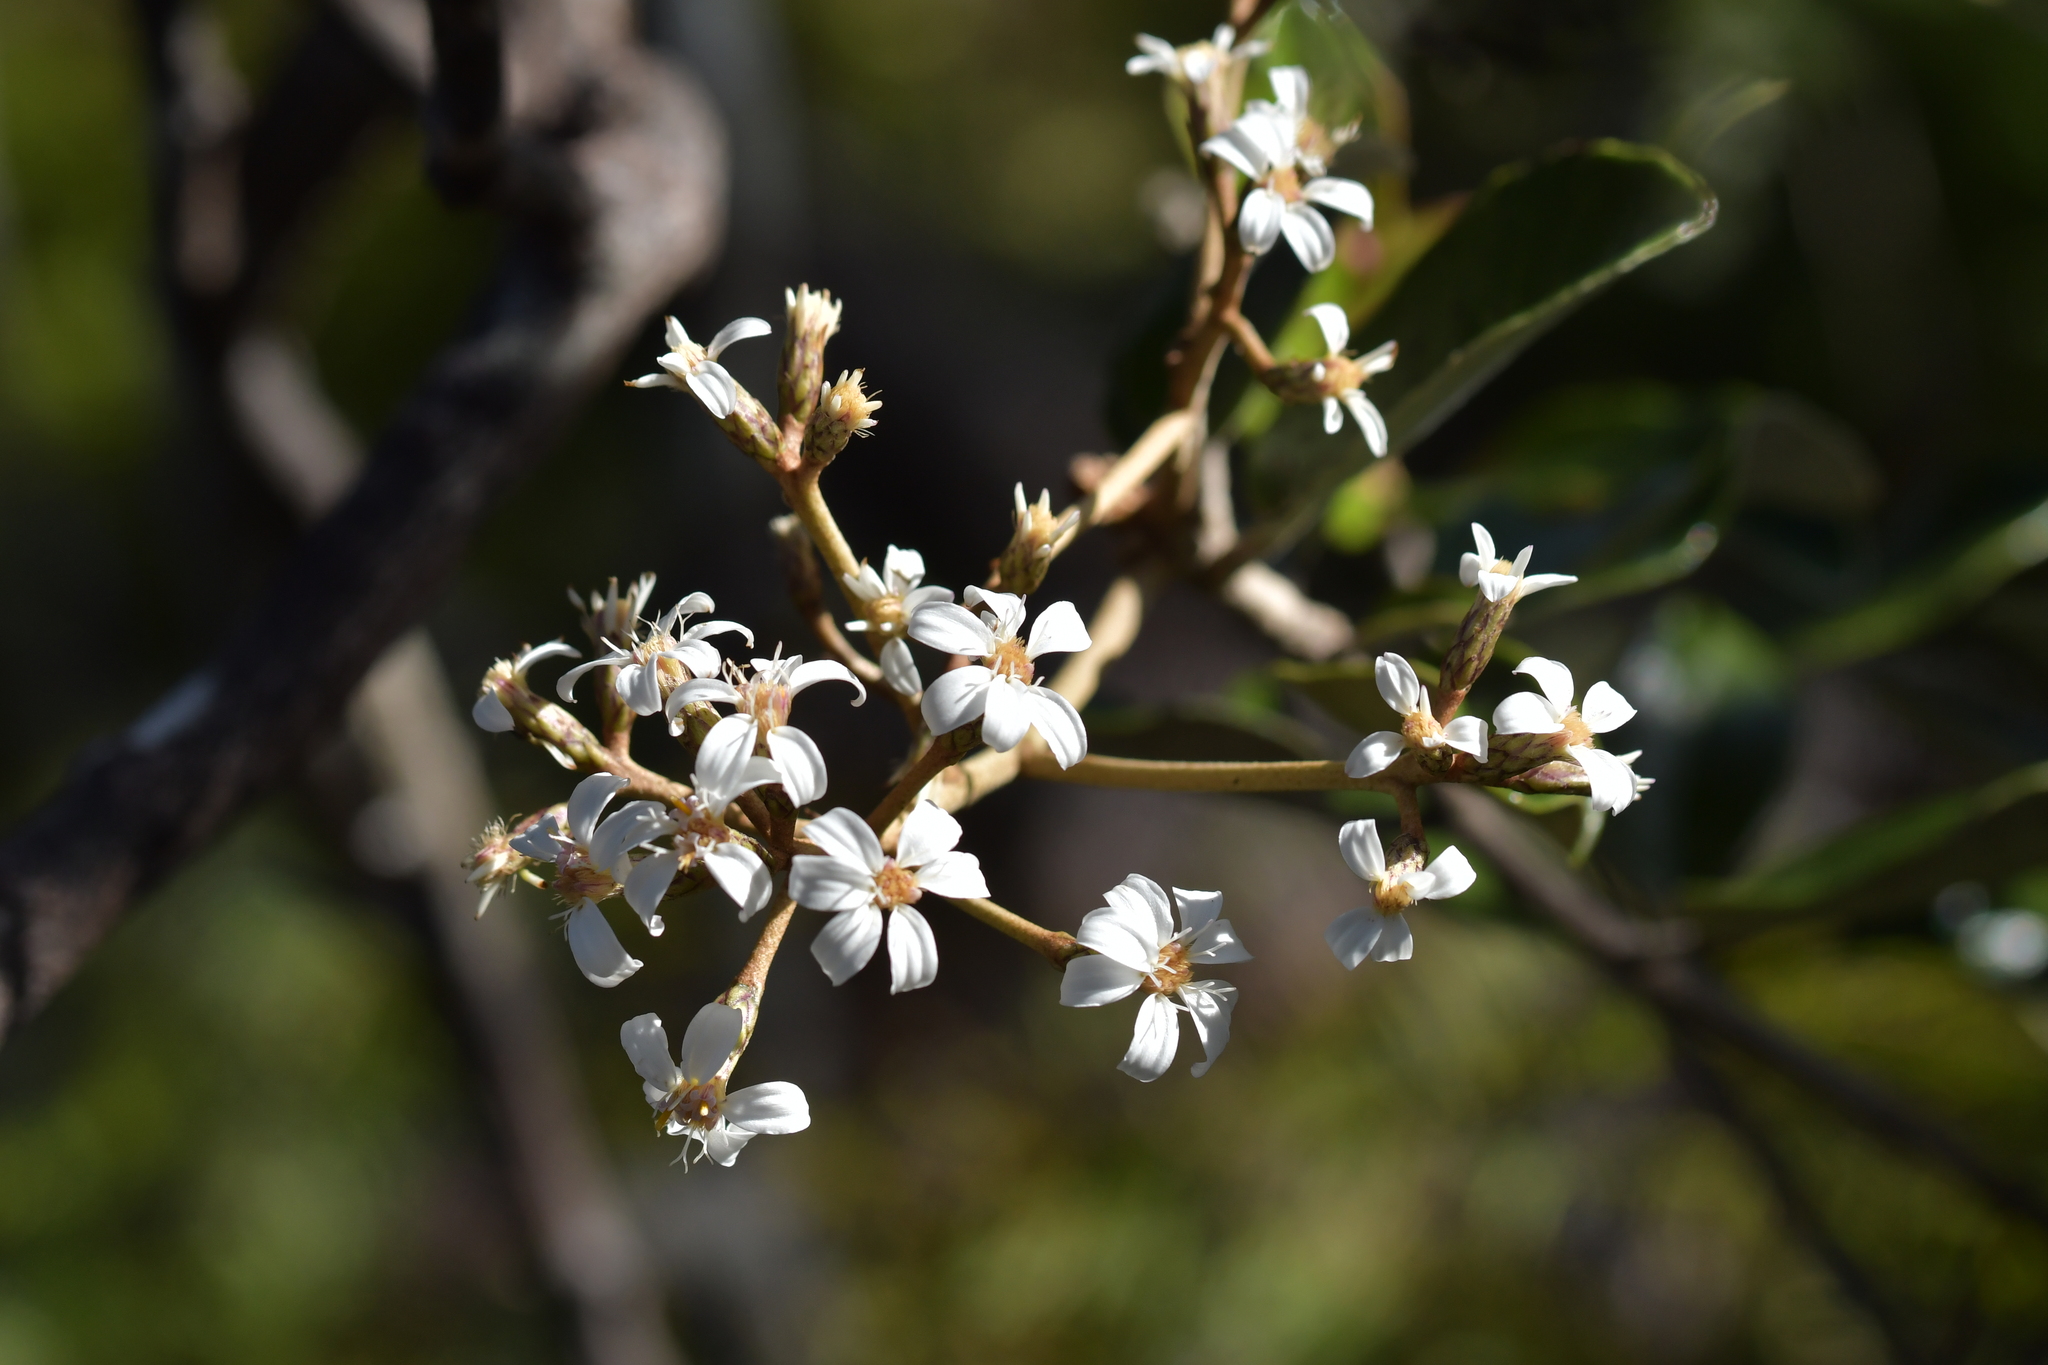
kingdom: Plantae
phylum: Tracheophyta
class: Magnoliopsida
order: Asterales
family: Asteraceae
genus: Olearia
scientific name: Olearia furfuracea
